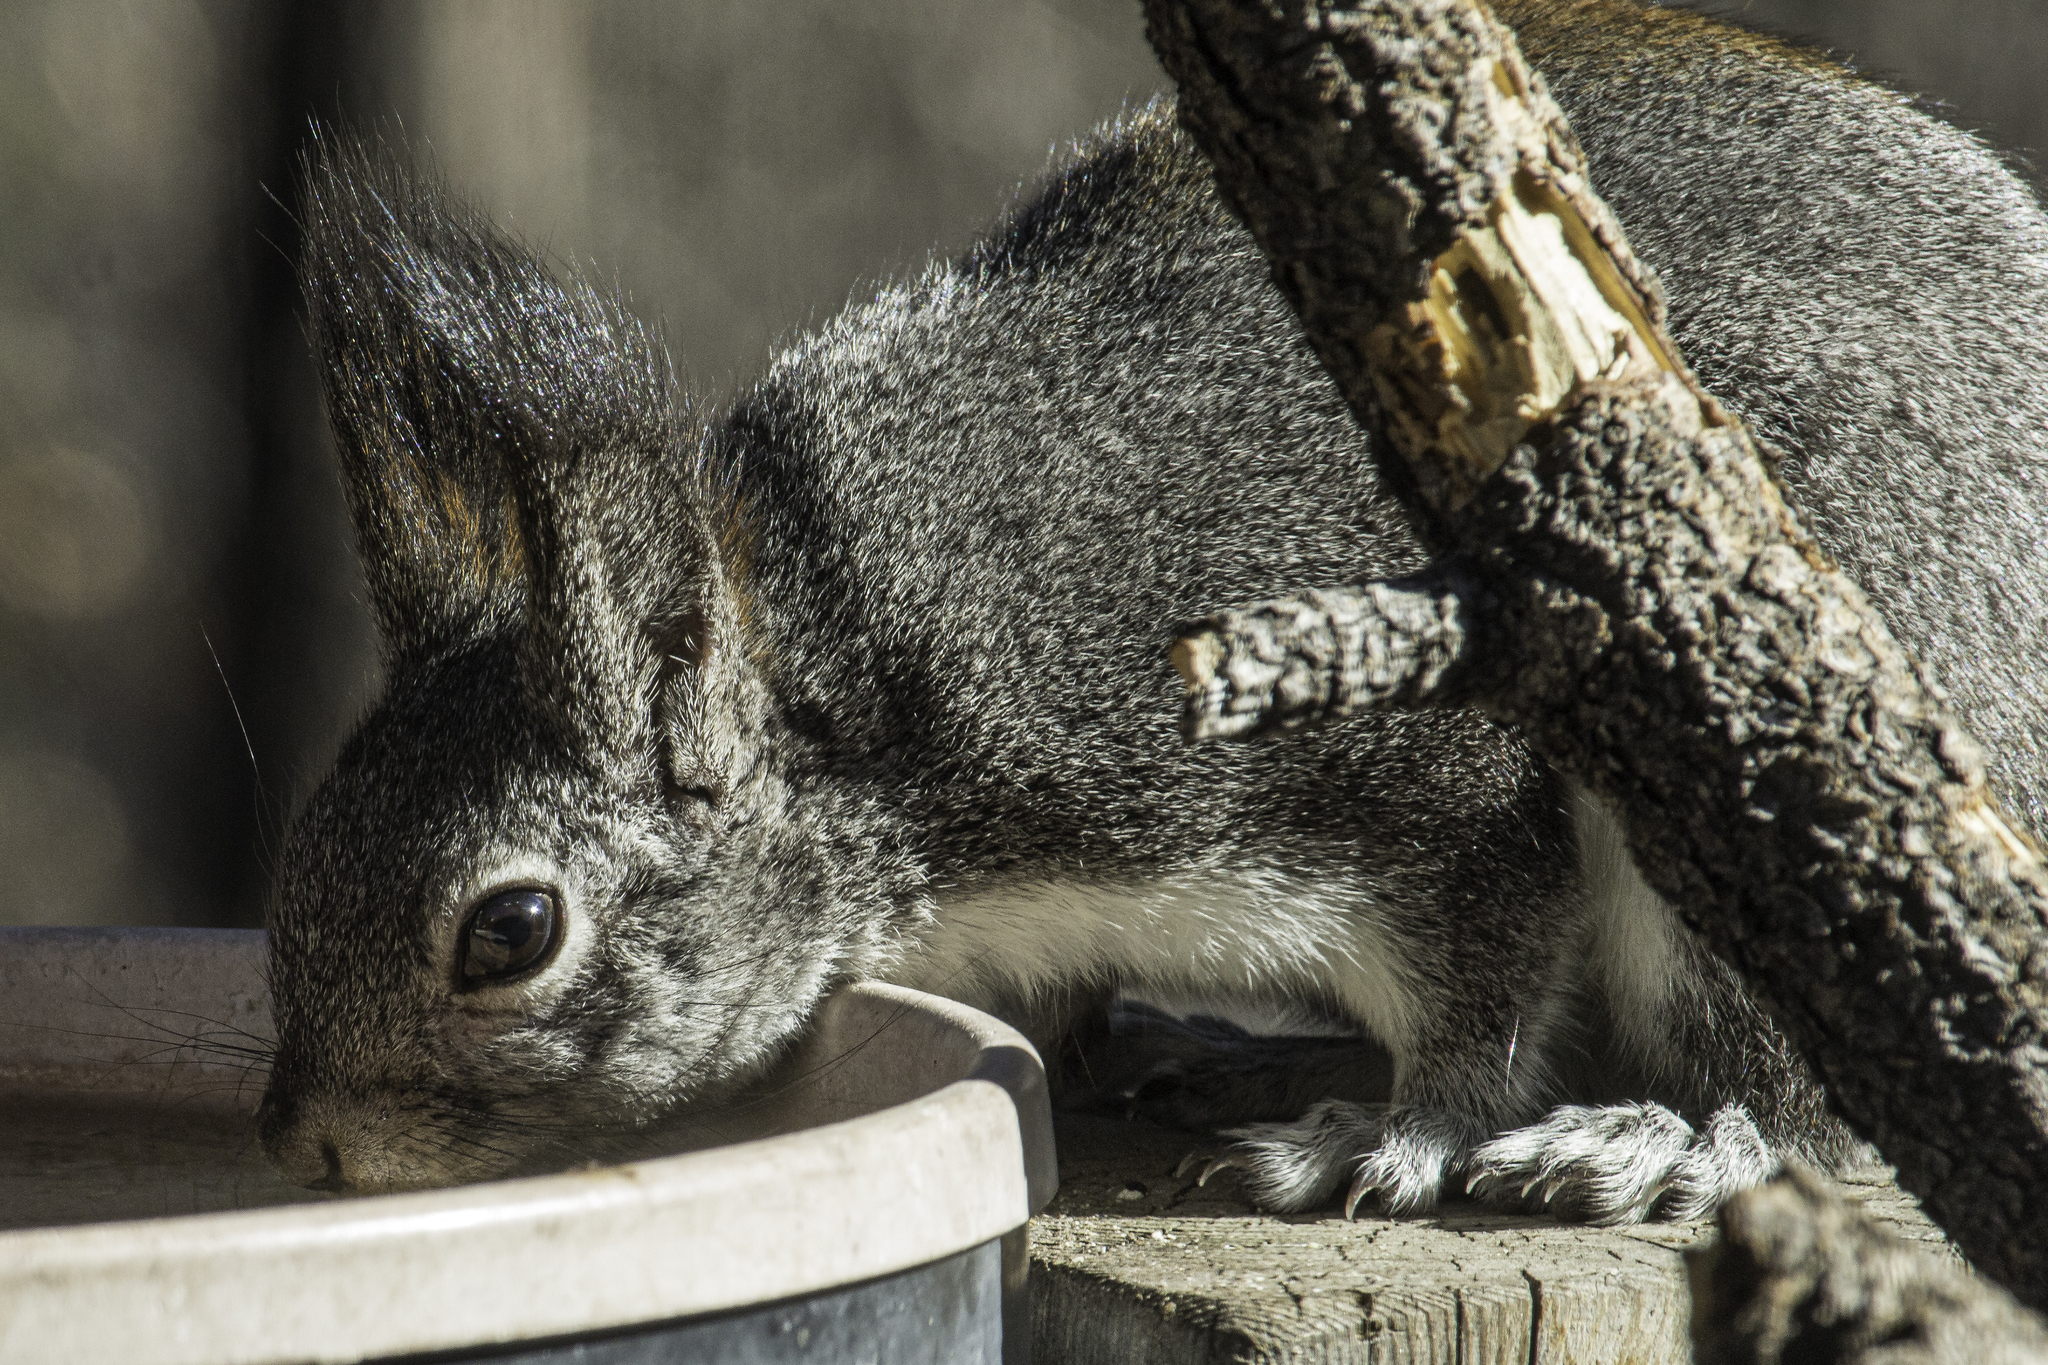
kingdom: Animalia
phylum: Chordata
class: Mammalia
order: Rodentia
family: Sciuridae
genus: Sciurus
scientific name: Sciurus aberti
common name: Abert's squirrel
